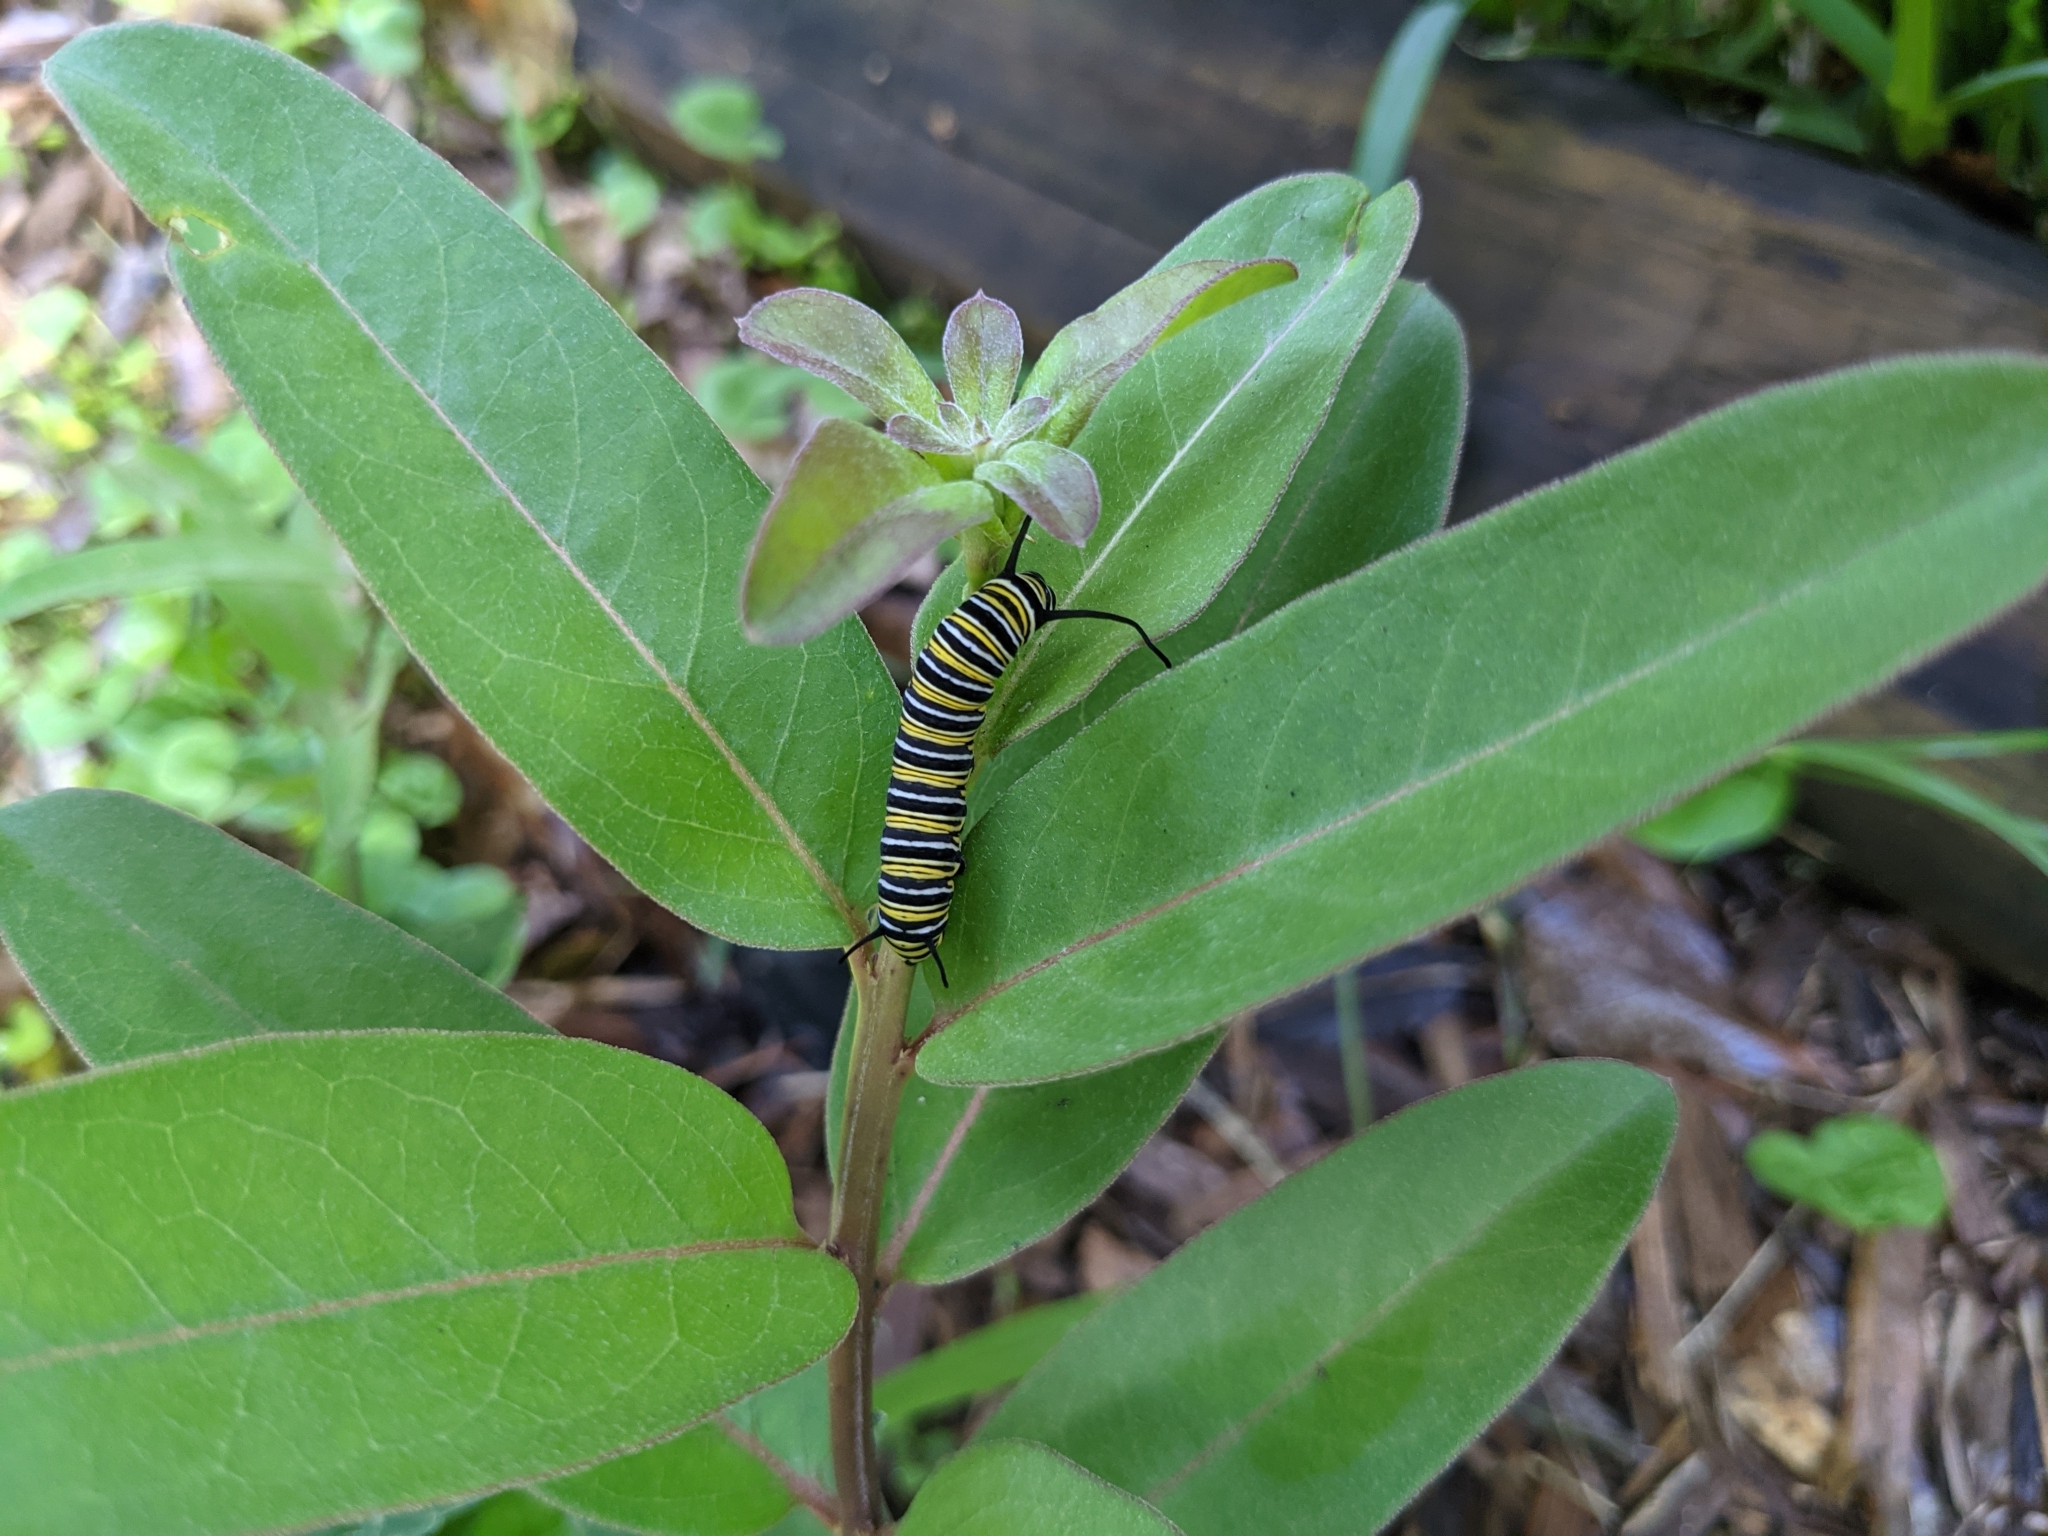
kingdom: Animalia
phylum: Arthropoda
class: Insecta
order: Lepidoptera
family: Nymphalidae
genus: Danaus
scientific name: Danaus plexippus
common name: Monarch
